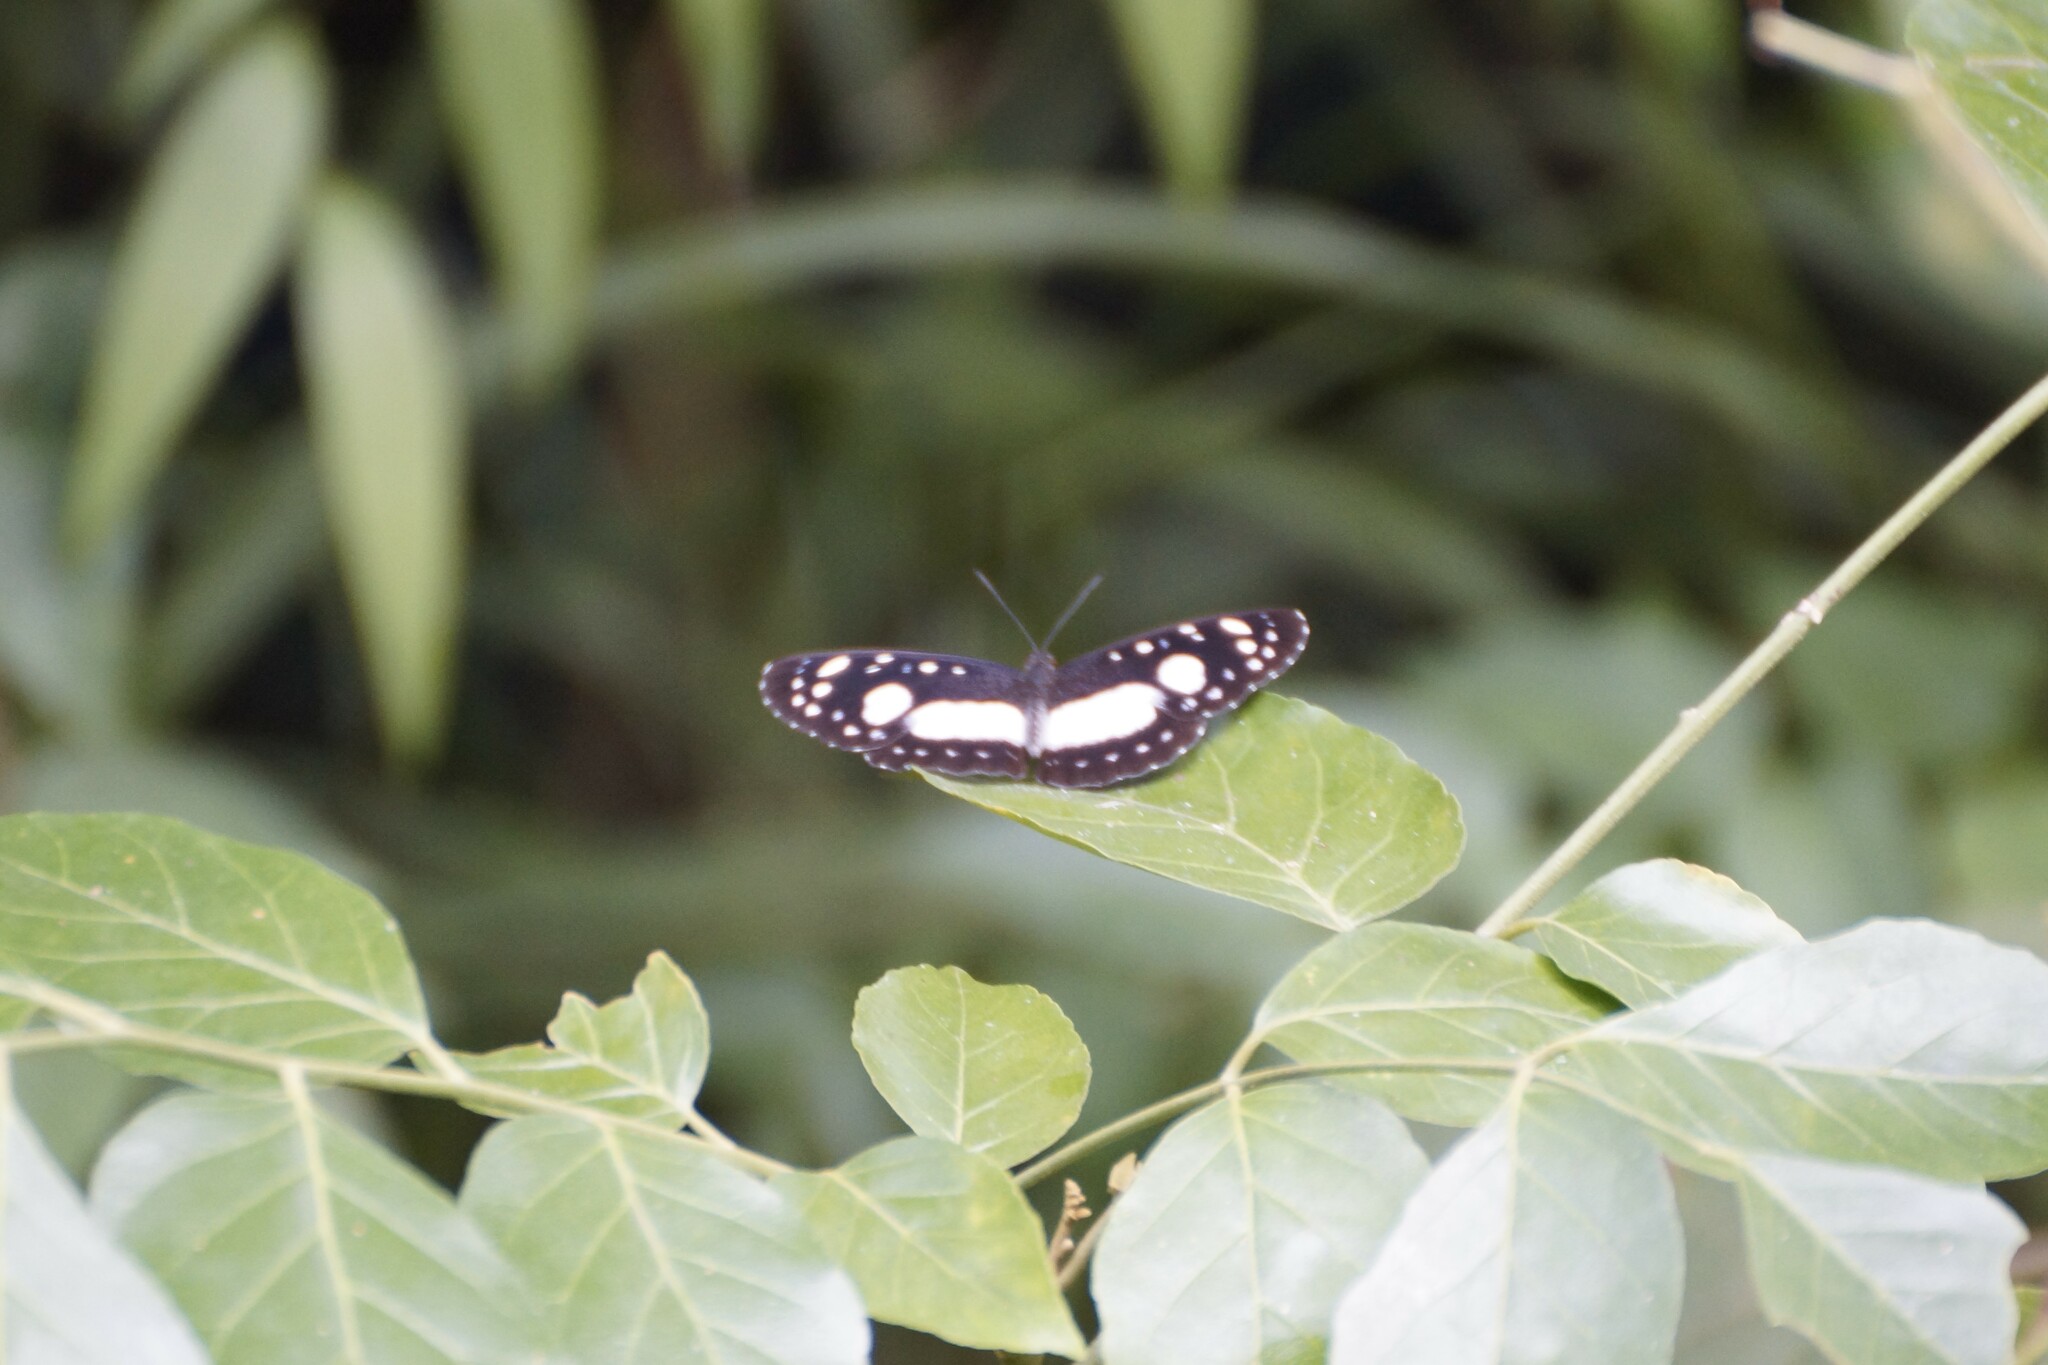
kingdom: Animalia
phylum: Arthropoda
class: Insecta
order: Lepidoptera
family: Nymphalidae
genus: Pantoporia
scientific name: Pantoporia venilia
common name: Cape york aeroplane
